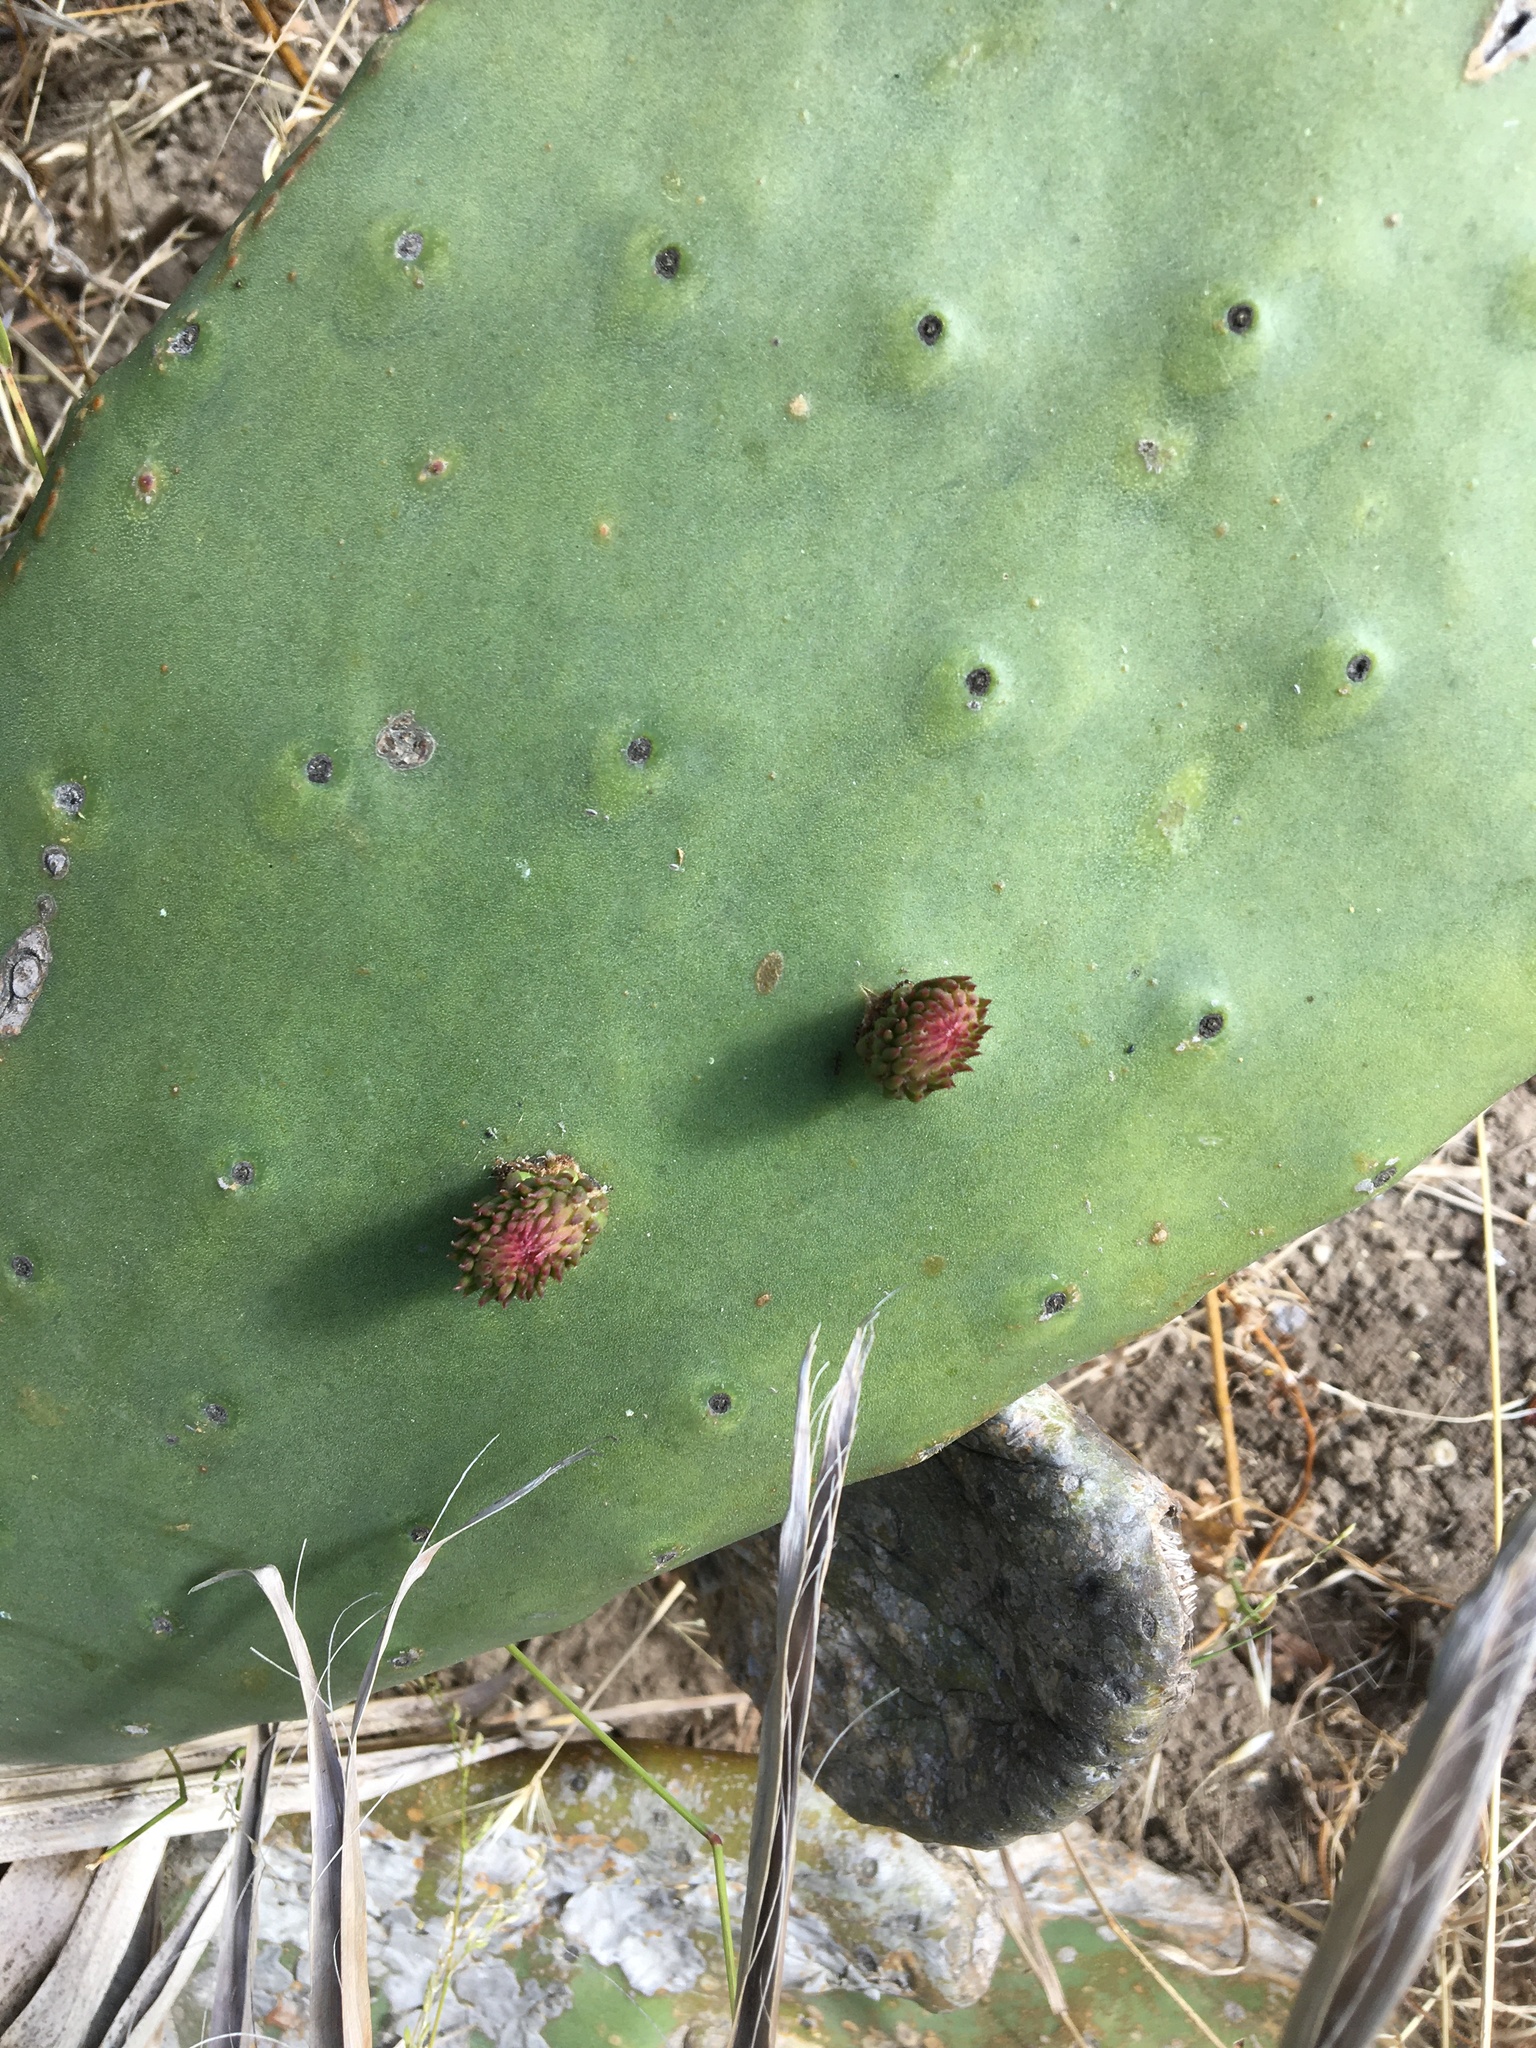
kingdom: Plantae
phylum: Tracheophyta
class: Magnoliopsida
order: Caryophyllales
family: Cactaceae
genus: Opuntia
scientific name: Opuntia ficus-indica
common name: Barbary fig
